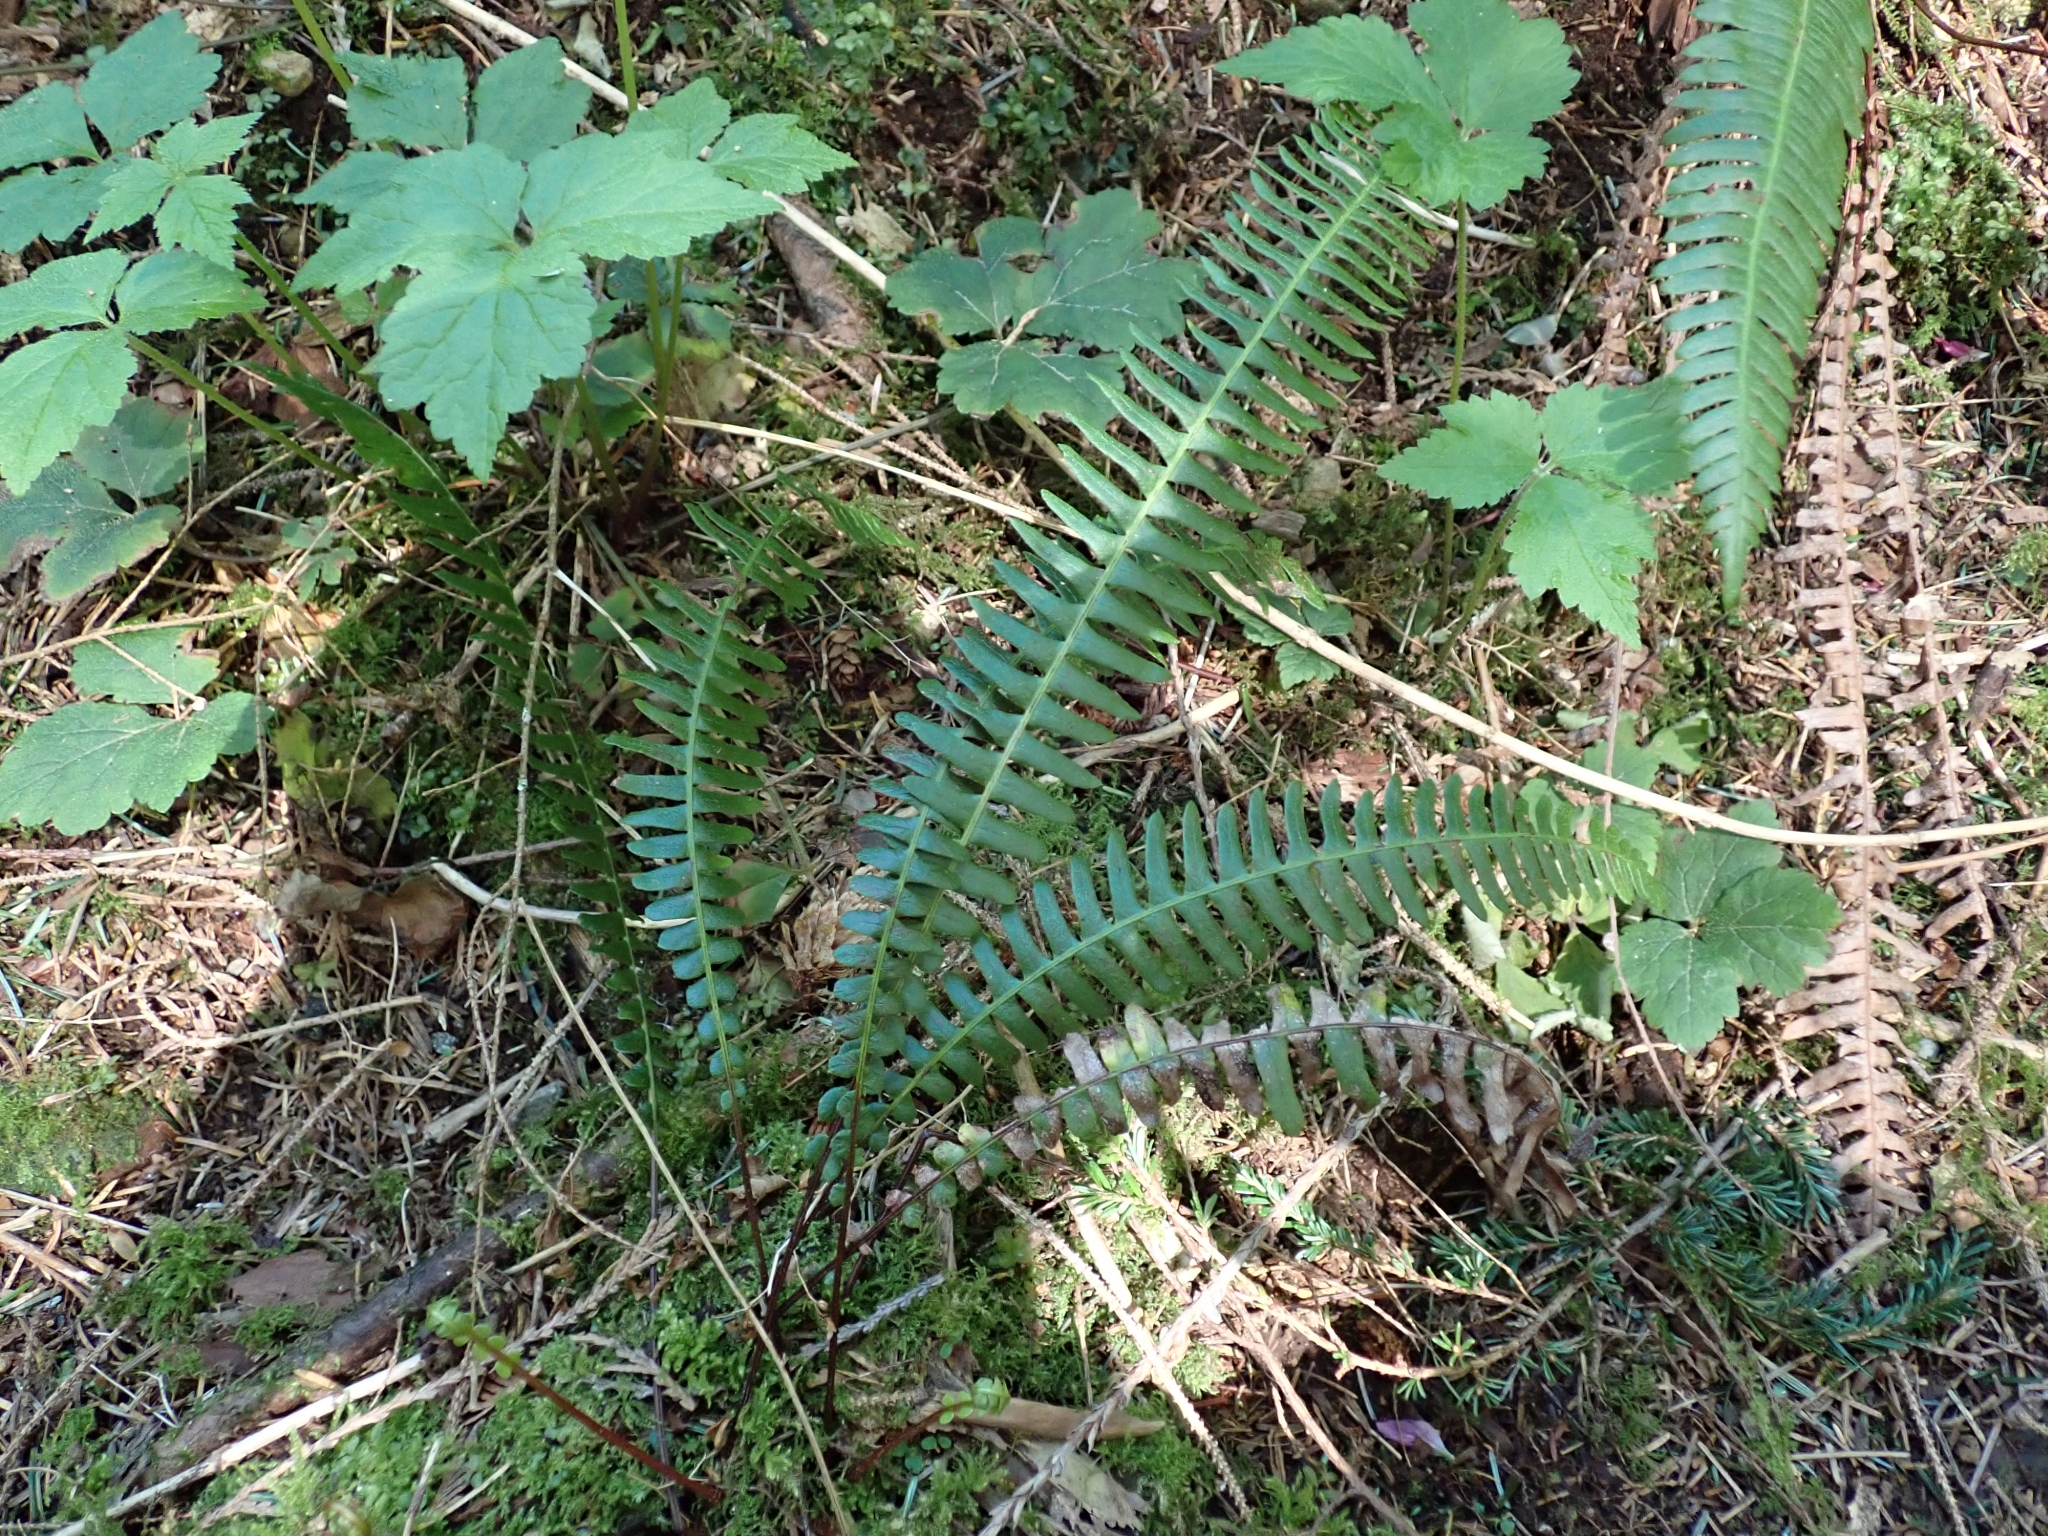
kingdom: Plantae
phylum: Tracheophyta
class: Polypodiopsida
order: Polypodiales
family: Blechnaceae
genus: Struthiopteris
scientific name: Struthiopteris spicant
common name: Deer fern
